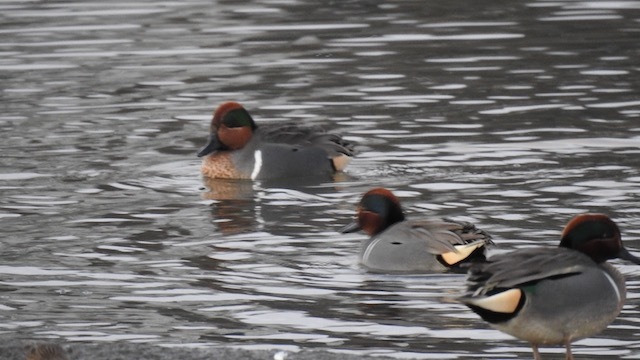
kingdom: Animalia
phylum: Chordata
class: Aves
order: Anseriformes
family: Anatidae
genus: Anas
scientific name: Anas carolinensis
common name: Green-winged teal
